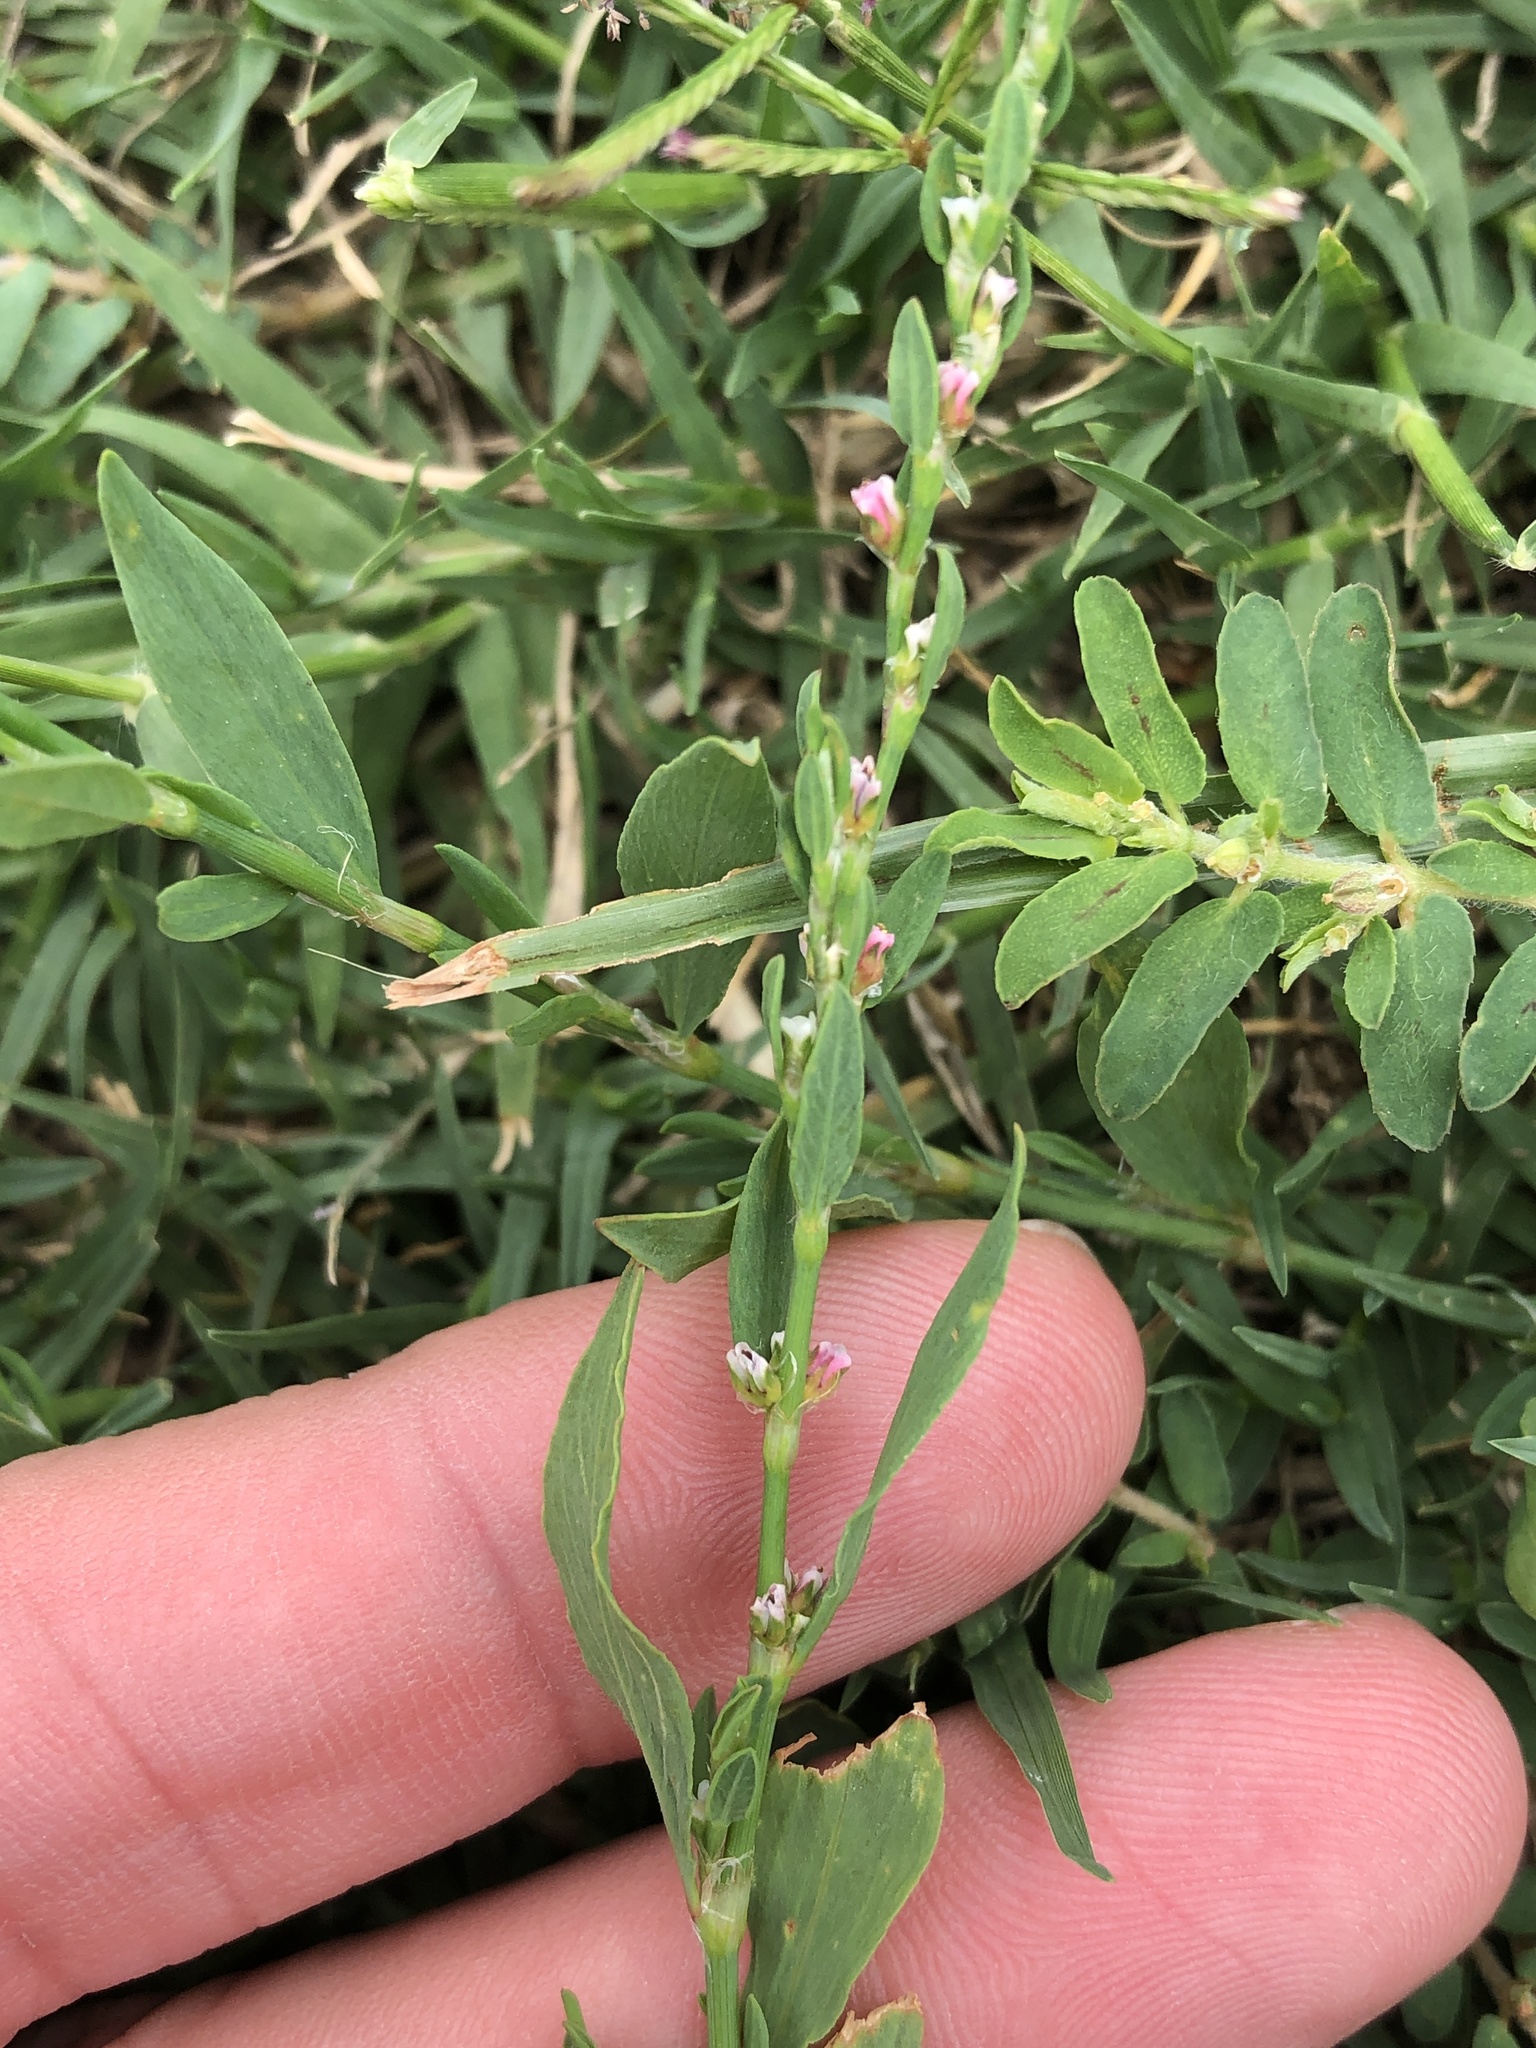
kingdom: Plantae
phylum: Tracheophyta
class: Magnoliopsida
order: Caryophyllales
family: Polygonaceae
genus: Polygonum
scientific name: Polygonum aviculare
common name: Prostrate knotweed
